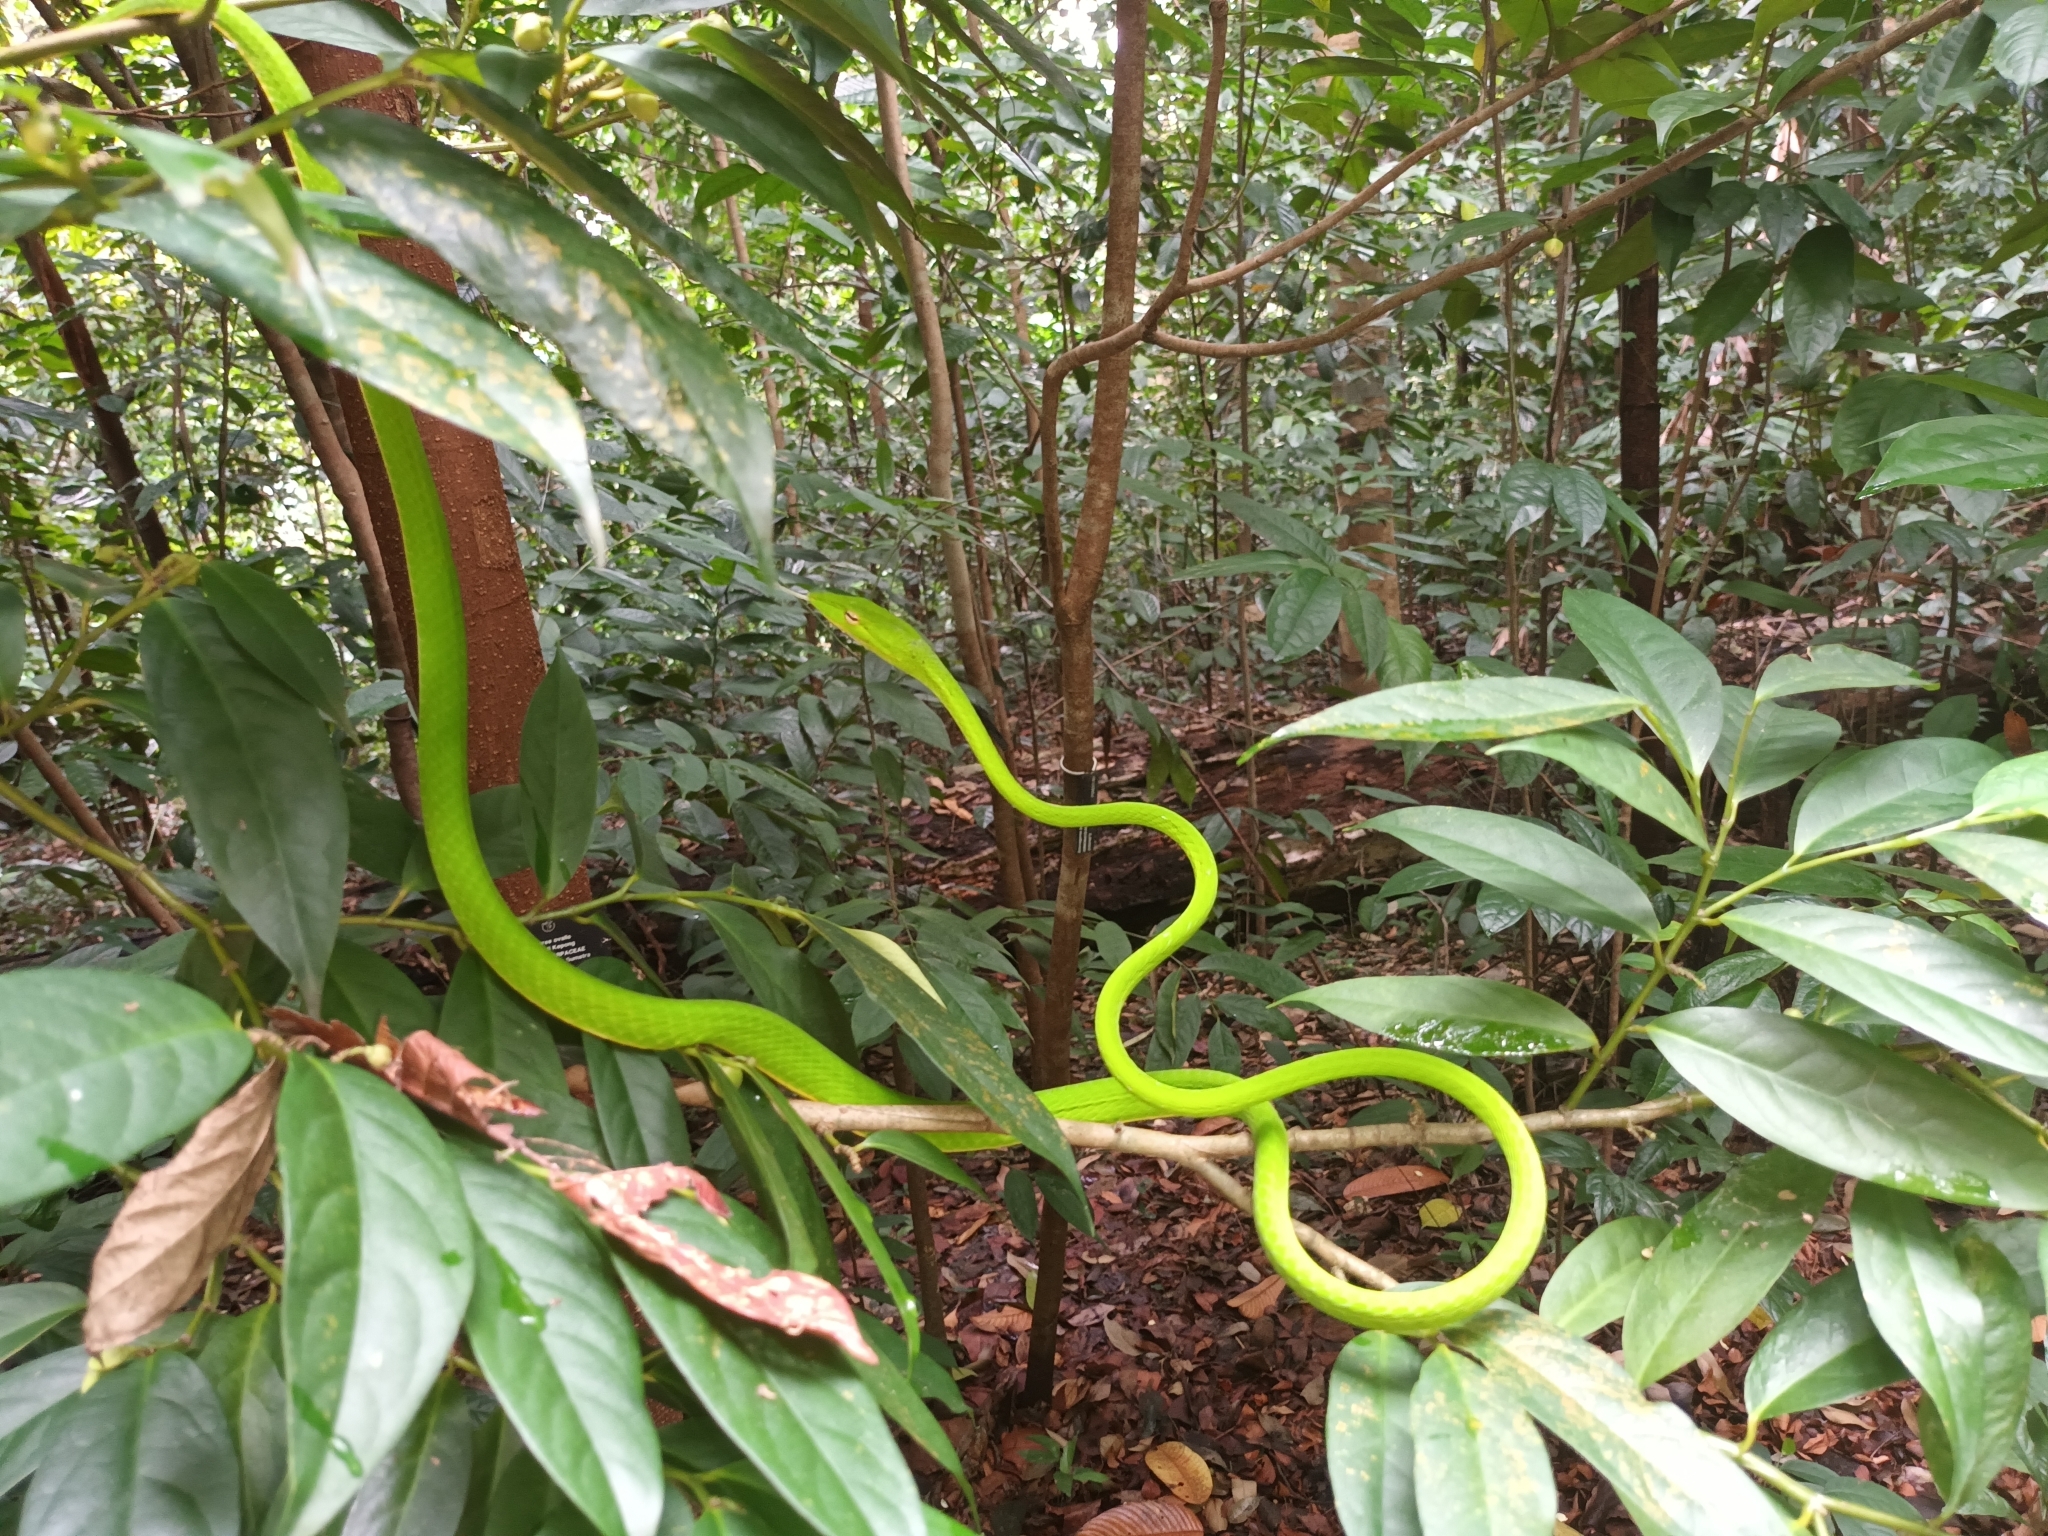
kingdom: Animalia
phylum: Chordata
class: Squamata
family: Colubridae
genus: Ahaetulla
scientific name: Ahaetulla prasina
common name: Oriental whip snake
